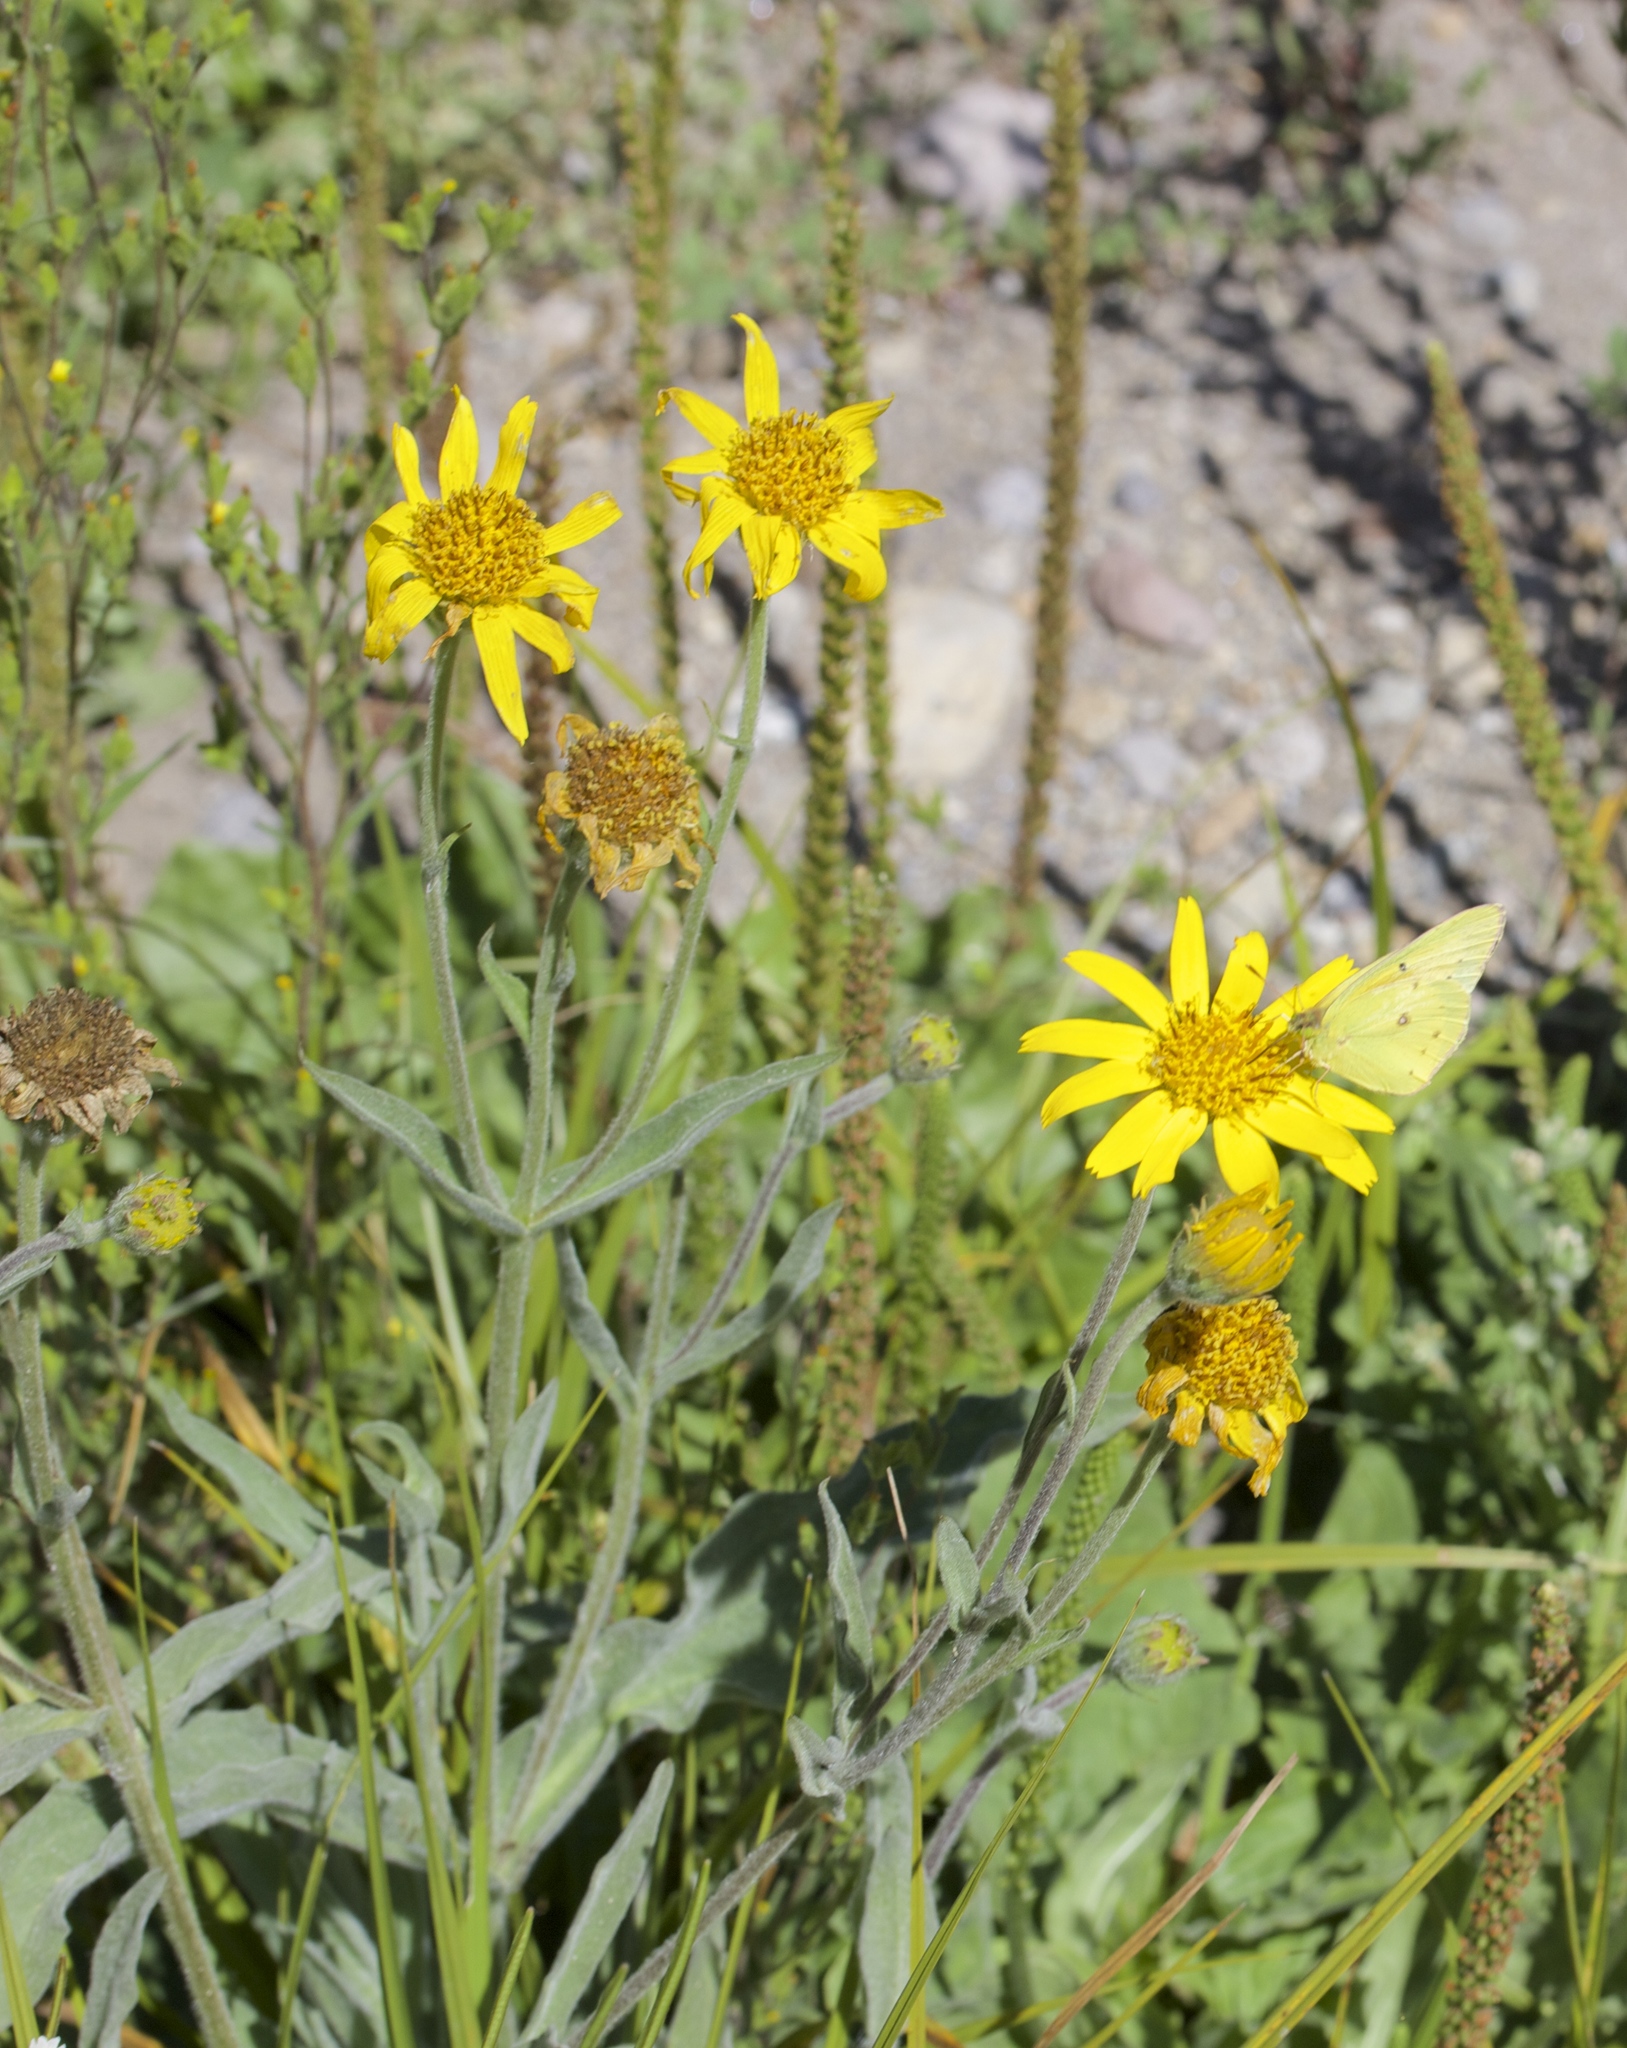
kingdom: Plantae
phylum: Tracheophyta
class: Magnoliopsida
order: Asterales
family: Asteraceae
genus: Arnica
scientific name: Arnica chamissonis
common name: Leafy arnica
